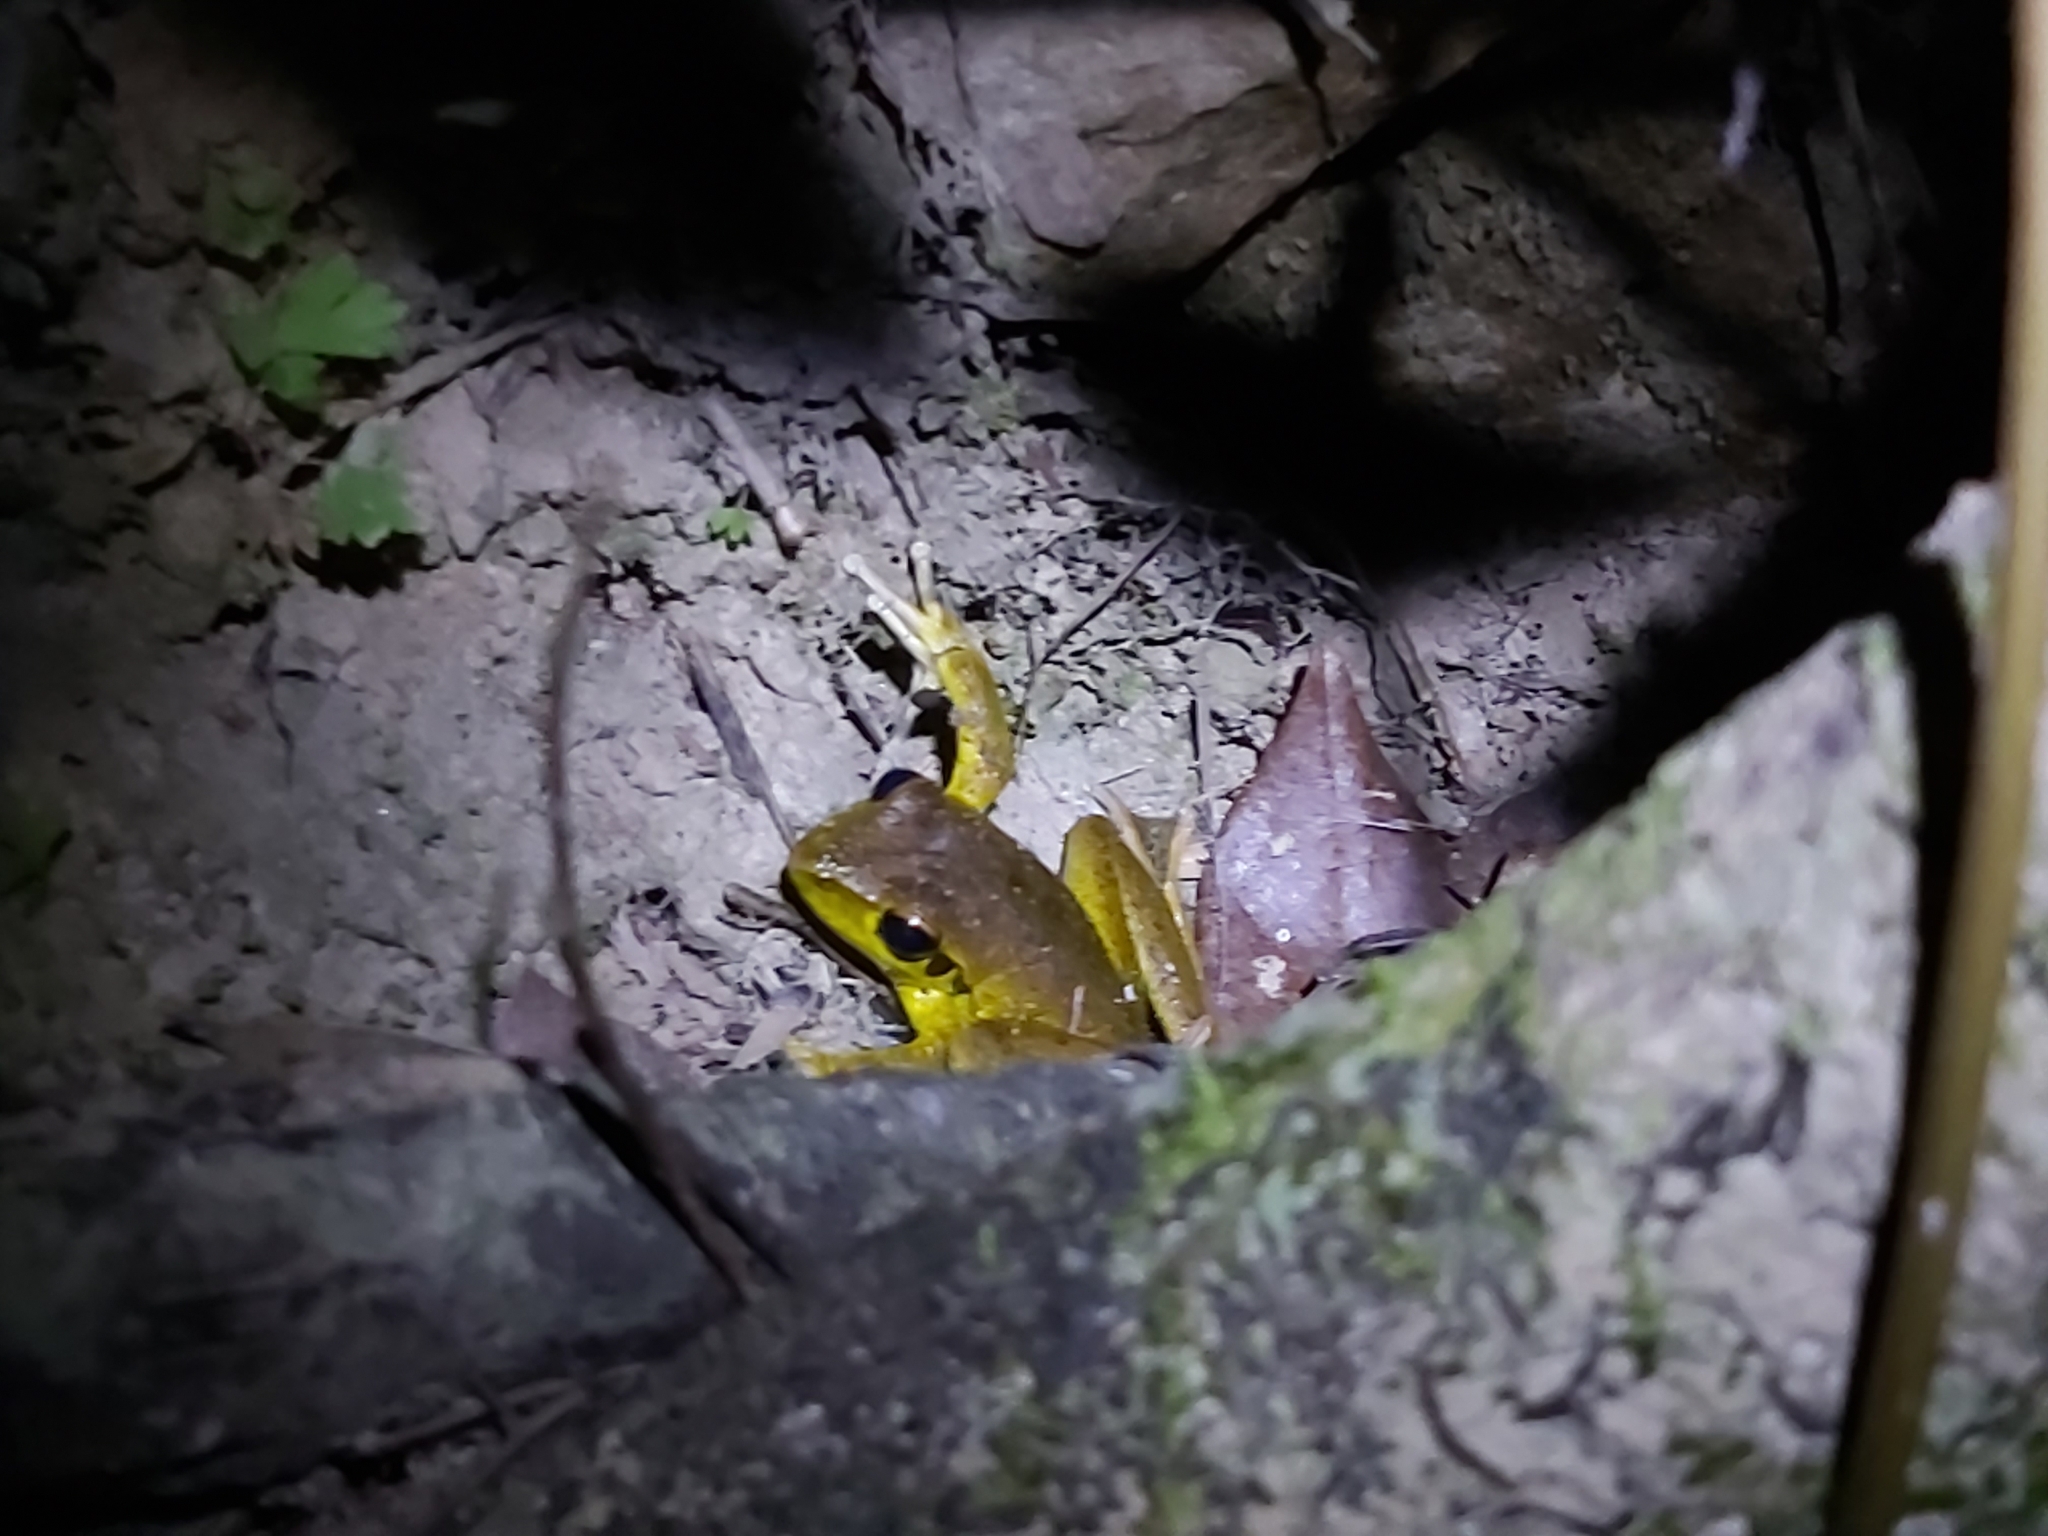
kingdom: Animalia
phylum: Chordata
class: Amphibia
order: Anura
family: Hylidae
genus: Ranoidea
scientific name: Ranoidea
